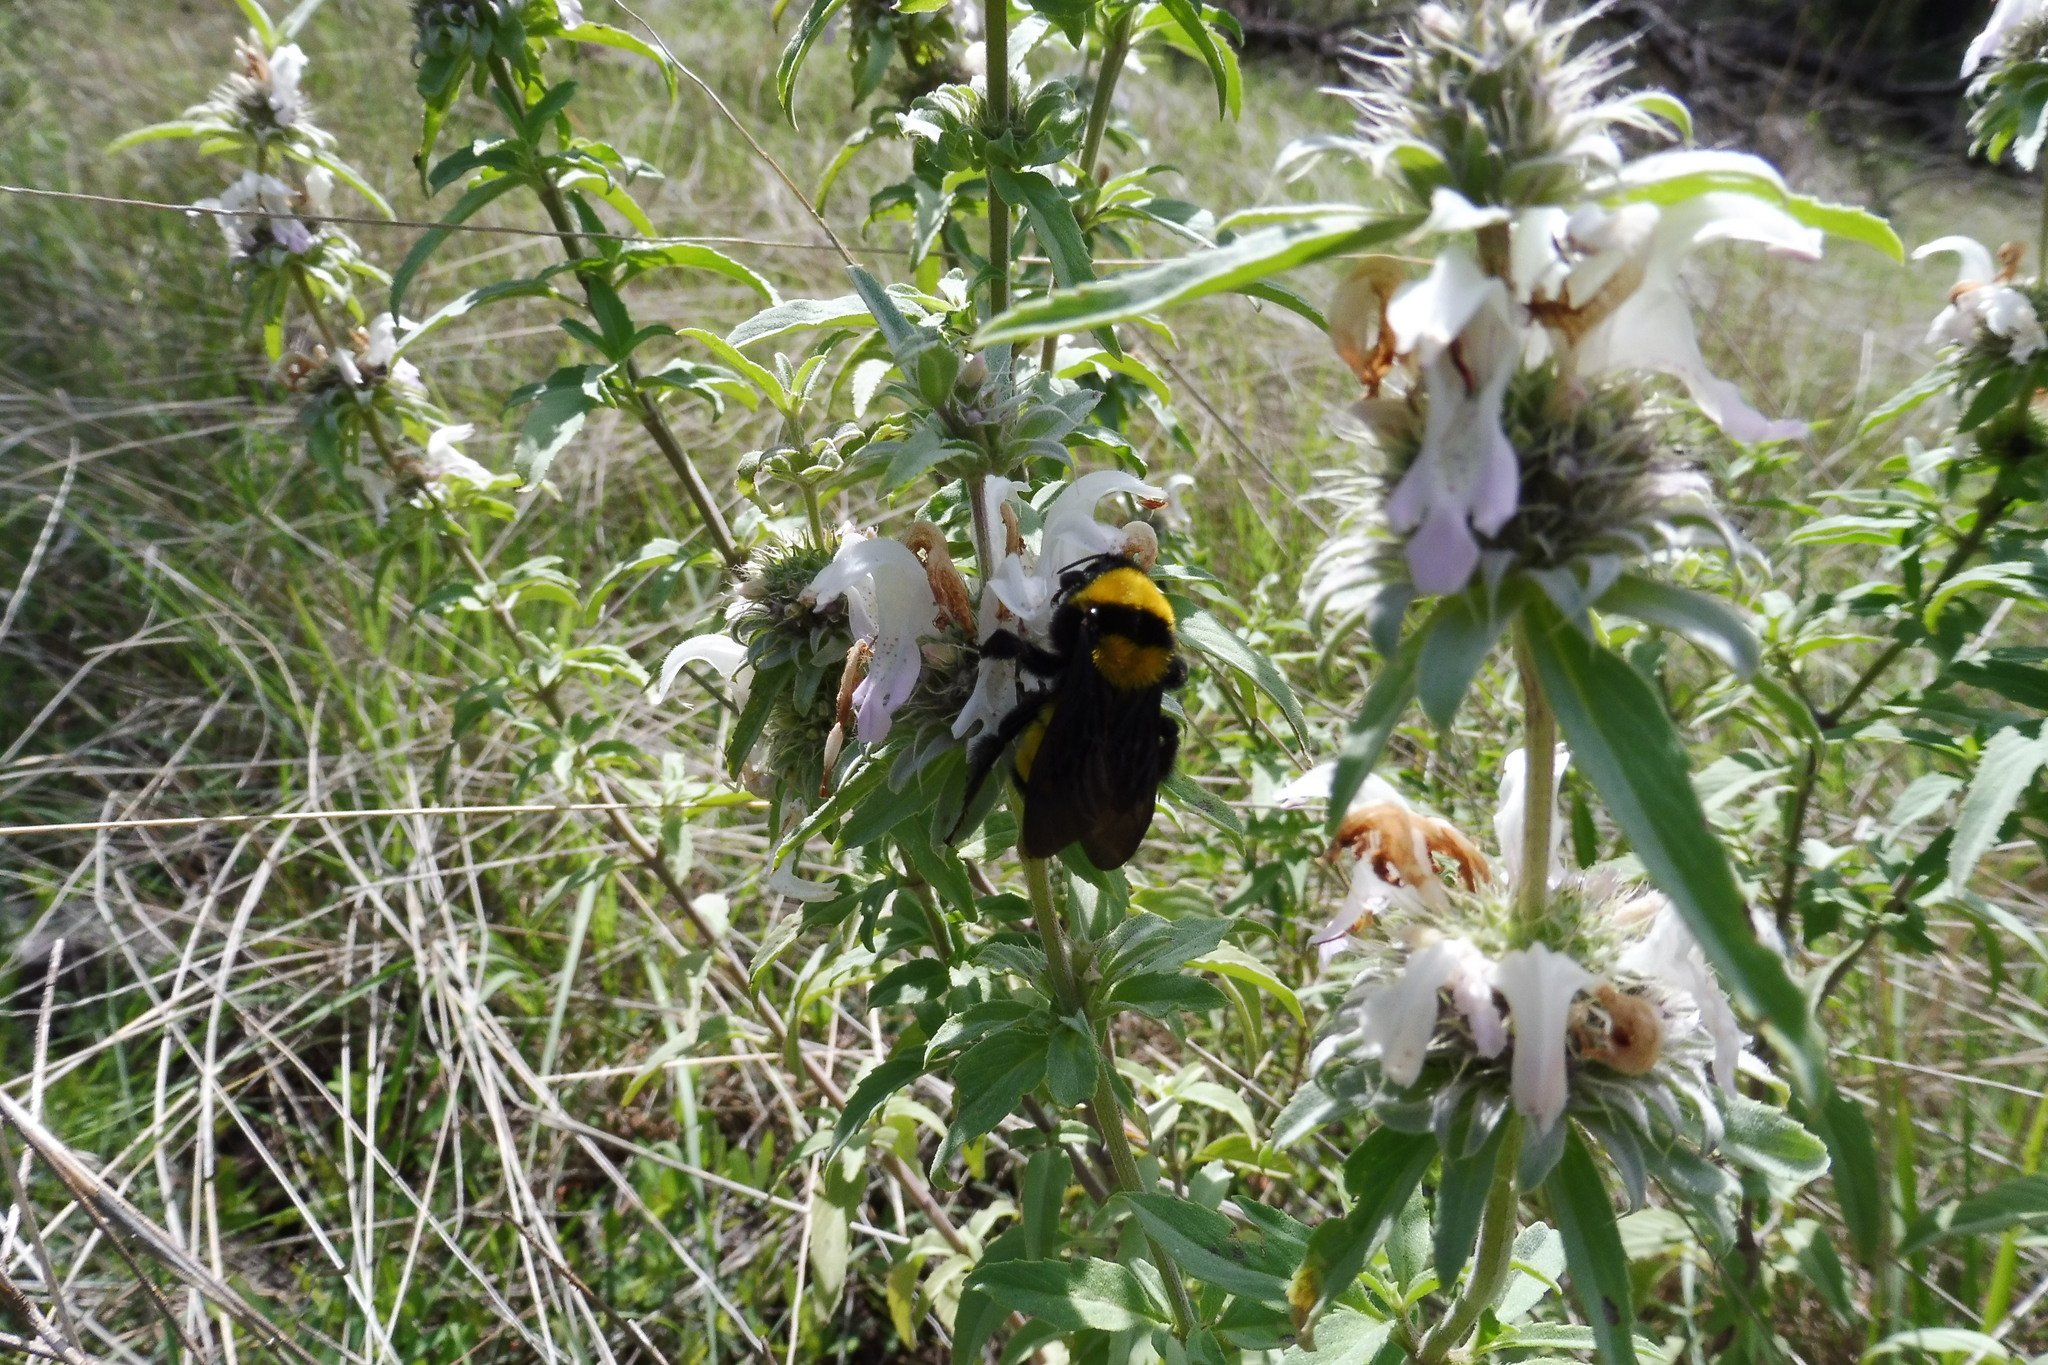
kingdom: Animalia
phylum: Arthropoda
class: Insecta
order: Hymenoptera
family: Apidae
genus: Bombus
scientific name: Bombus sonorus
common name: Sonoran bumble bee
